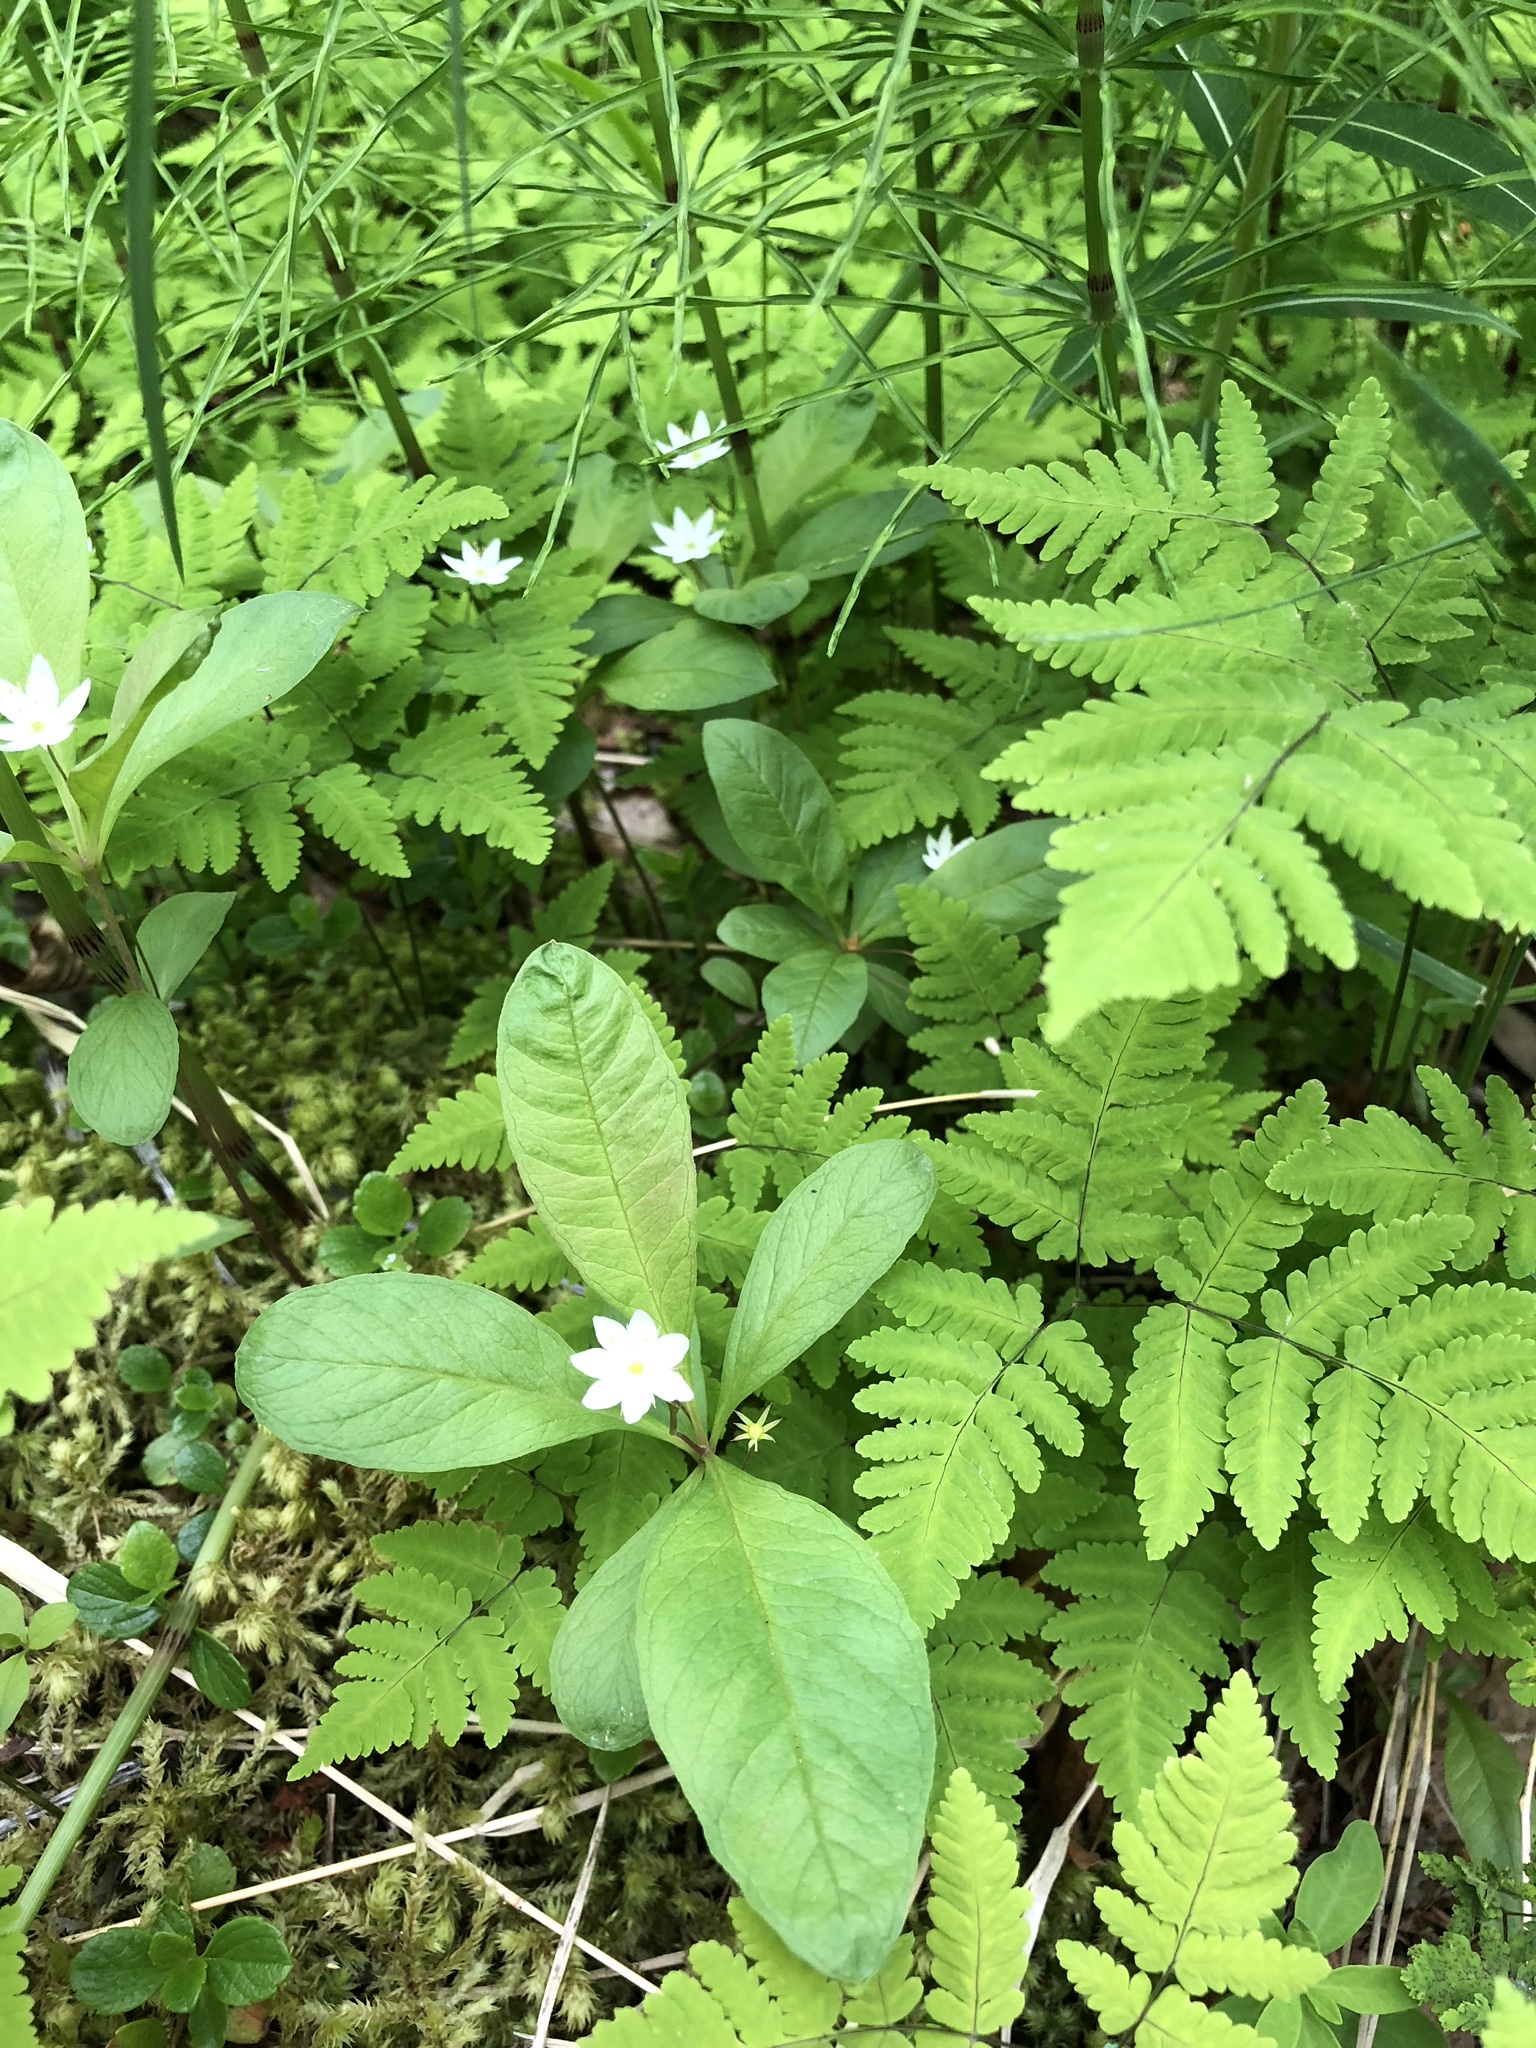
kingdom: Plantae
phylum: Tracheophyta
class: Magnoliopsida
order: Ericales
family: Primulaceae
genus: Lysimachia
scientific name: Lysimachia europaea
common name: Arctic starflower
